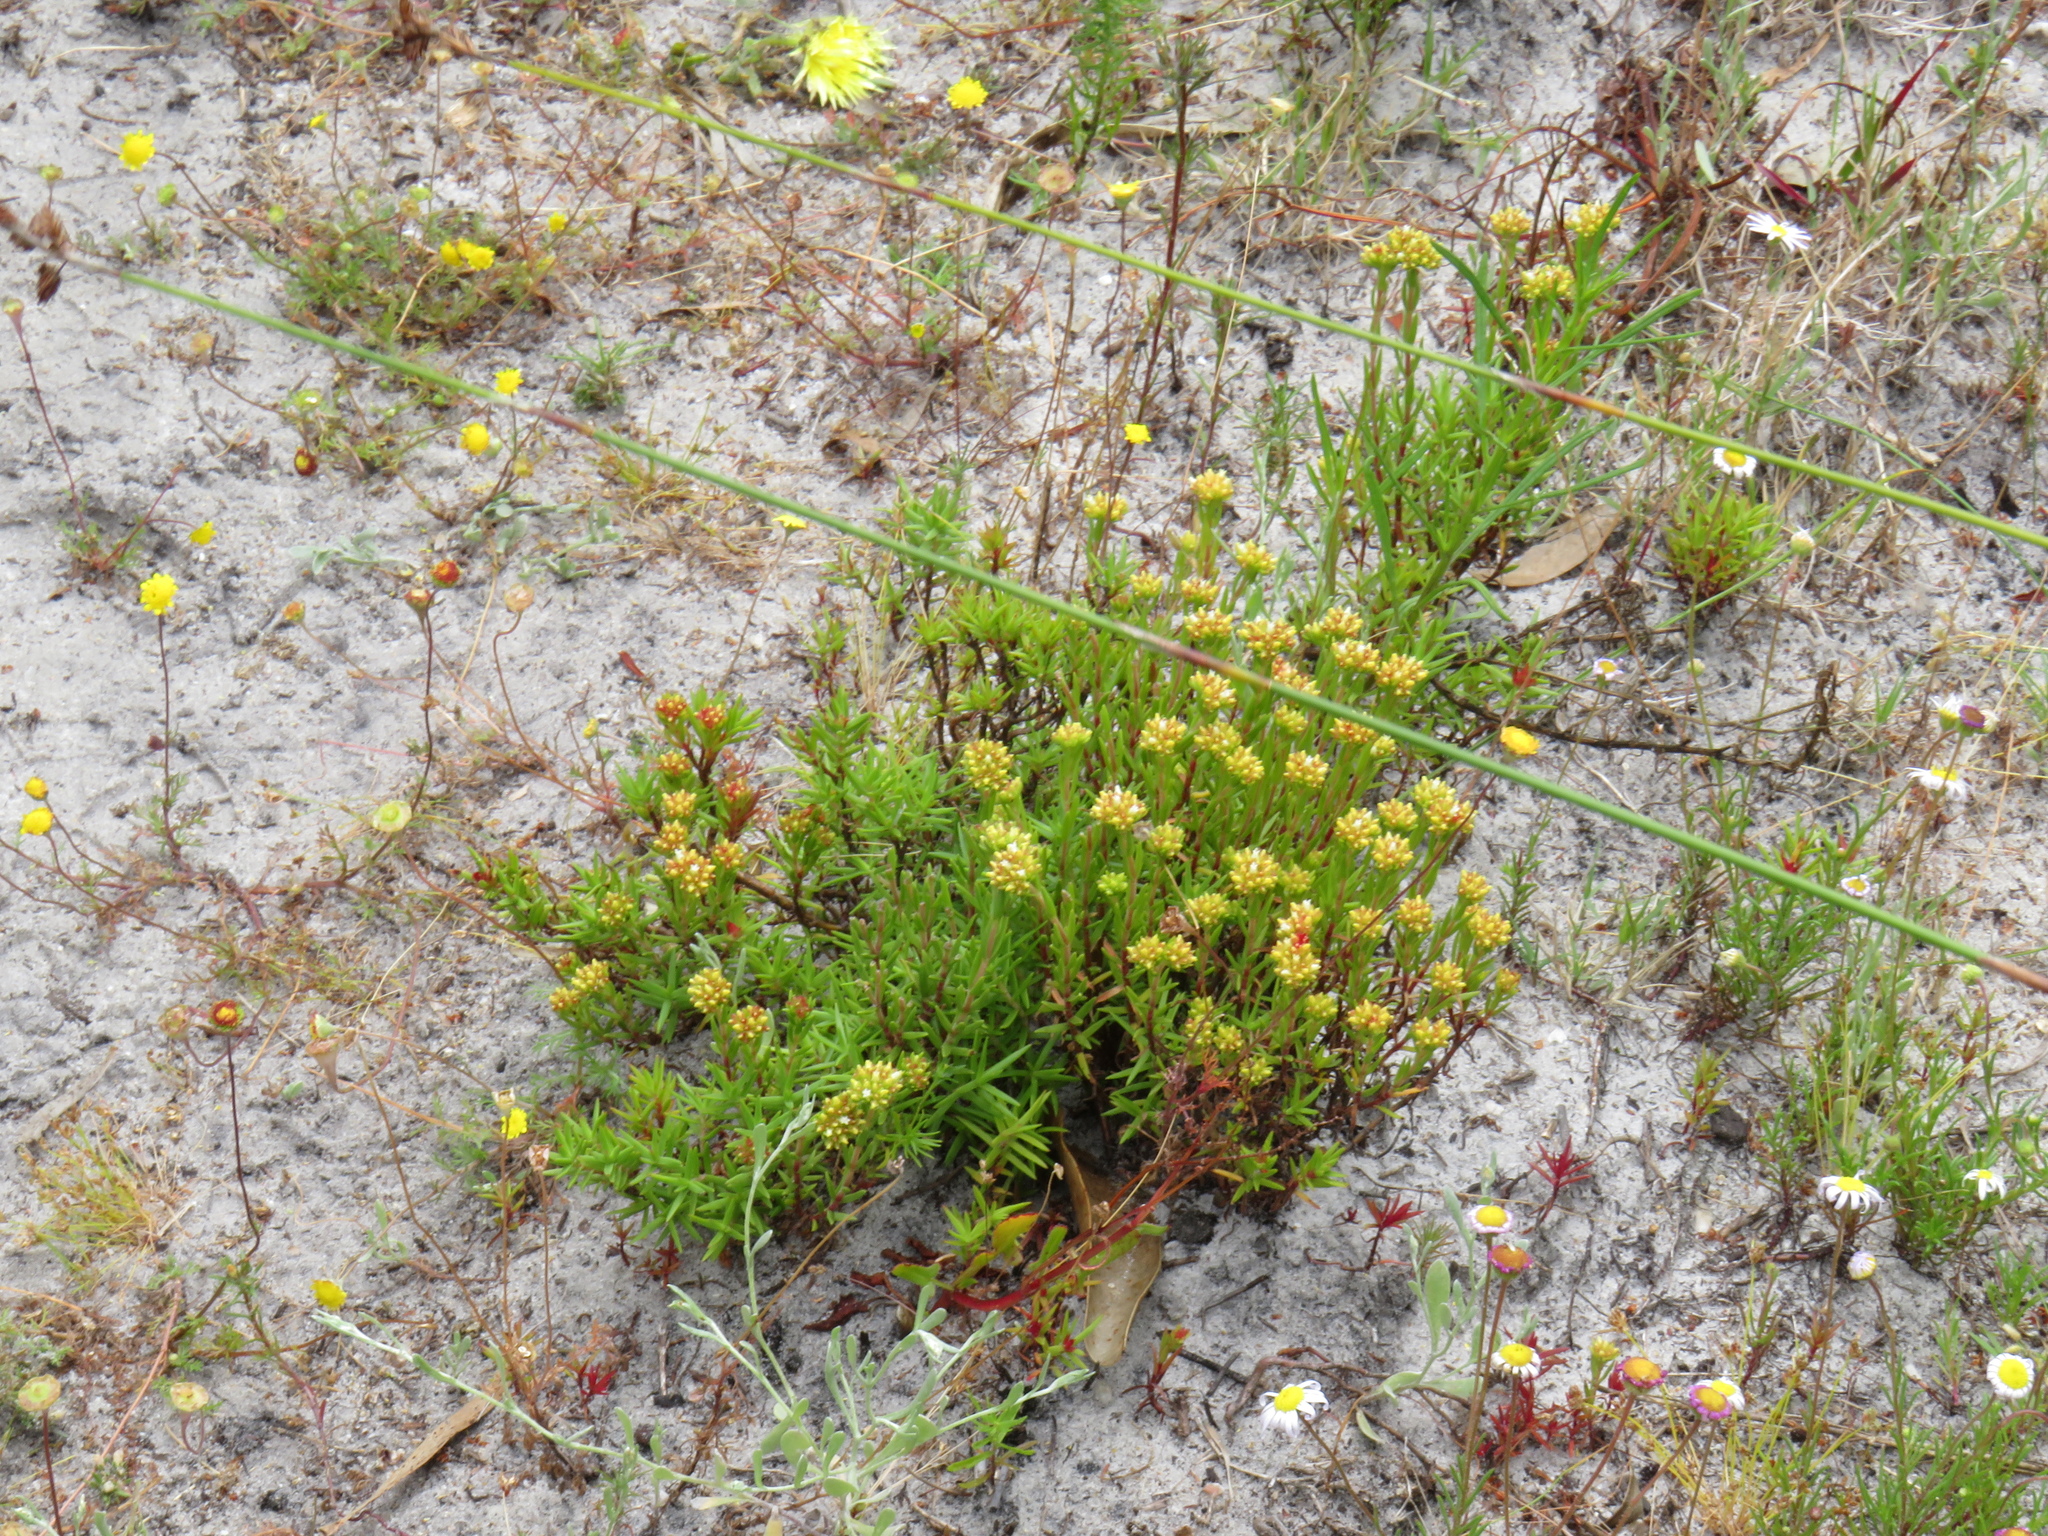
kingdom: Plantae
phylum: Tracheophyta
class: Magnoliopsida
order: Saxifragales
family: Crassulaceae
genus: Crassula
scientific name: Crassula subulata
